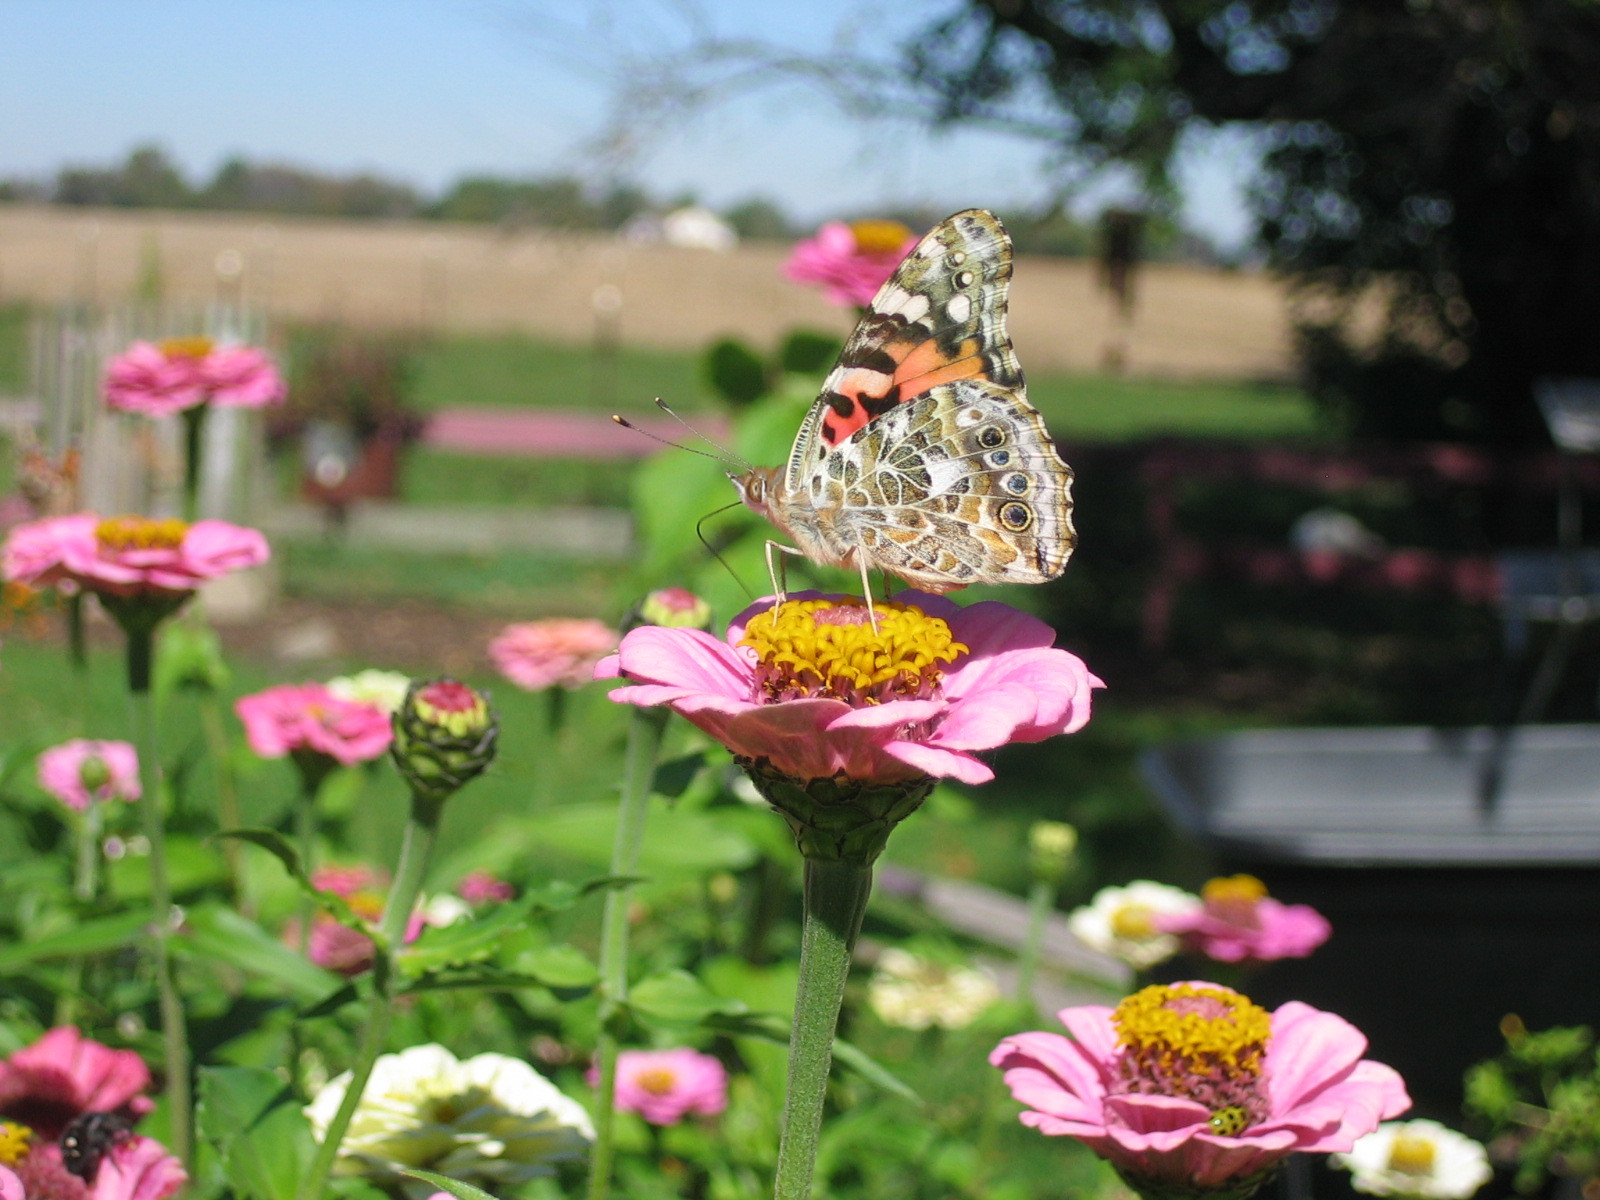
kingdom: Animalia
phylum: Arthropoda
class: Insecta
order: Lepidoptera
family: Nymphalidae
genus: Vanessa
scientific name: Vanessa cardui
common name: Painted lady
